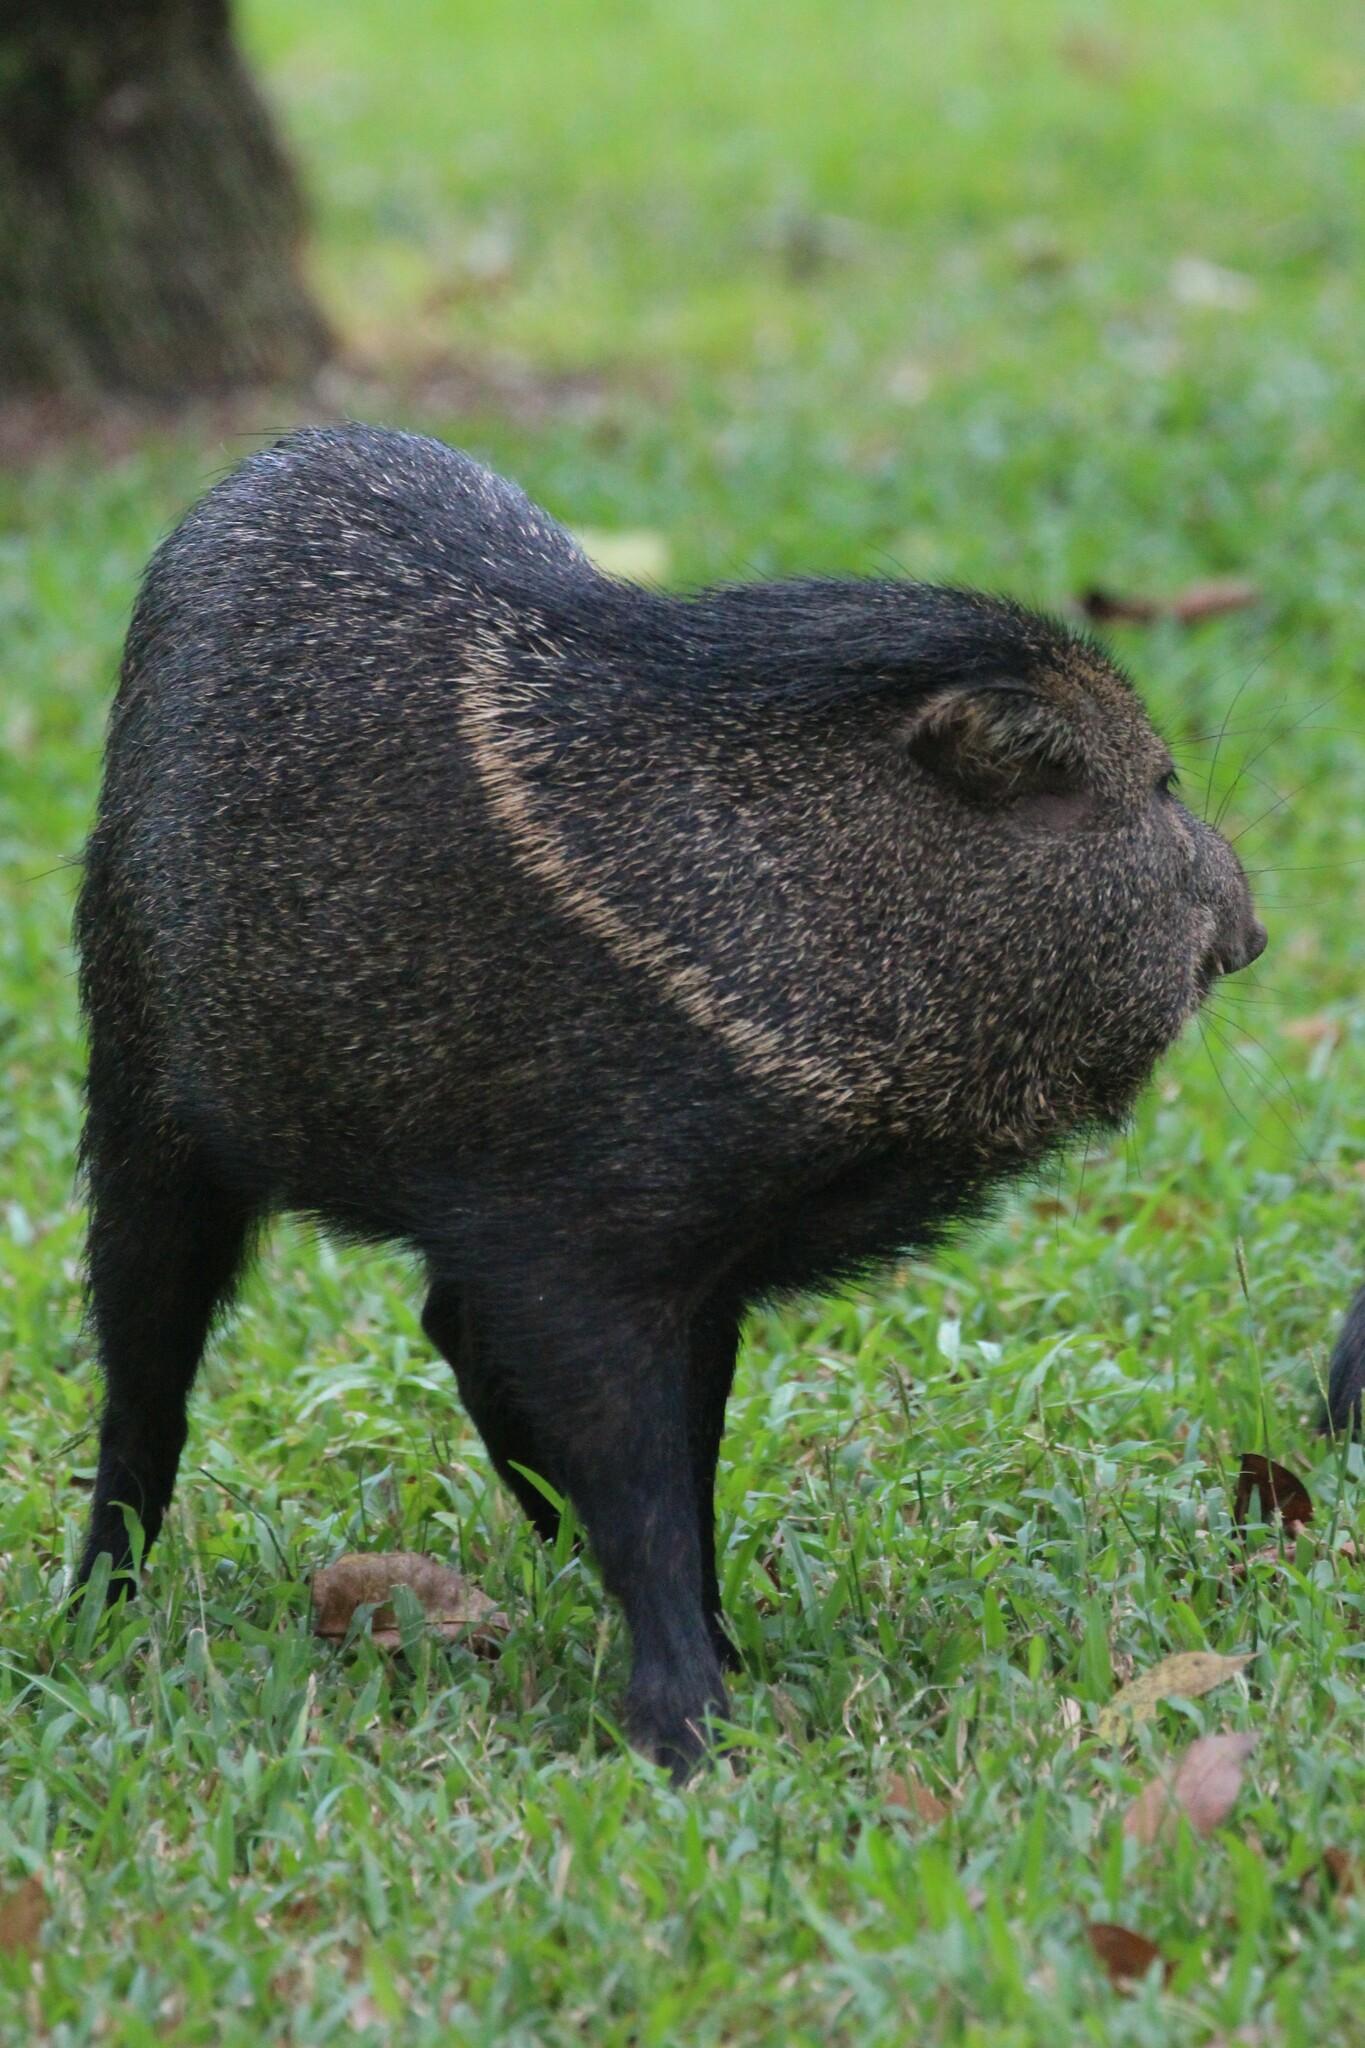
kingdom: Animalia
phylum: Chordata
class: Mammalia
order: Artiodactyla
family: Tayassuidae
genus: Pecari
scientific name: Pecari tajacu
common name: Collared peccary
